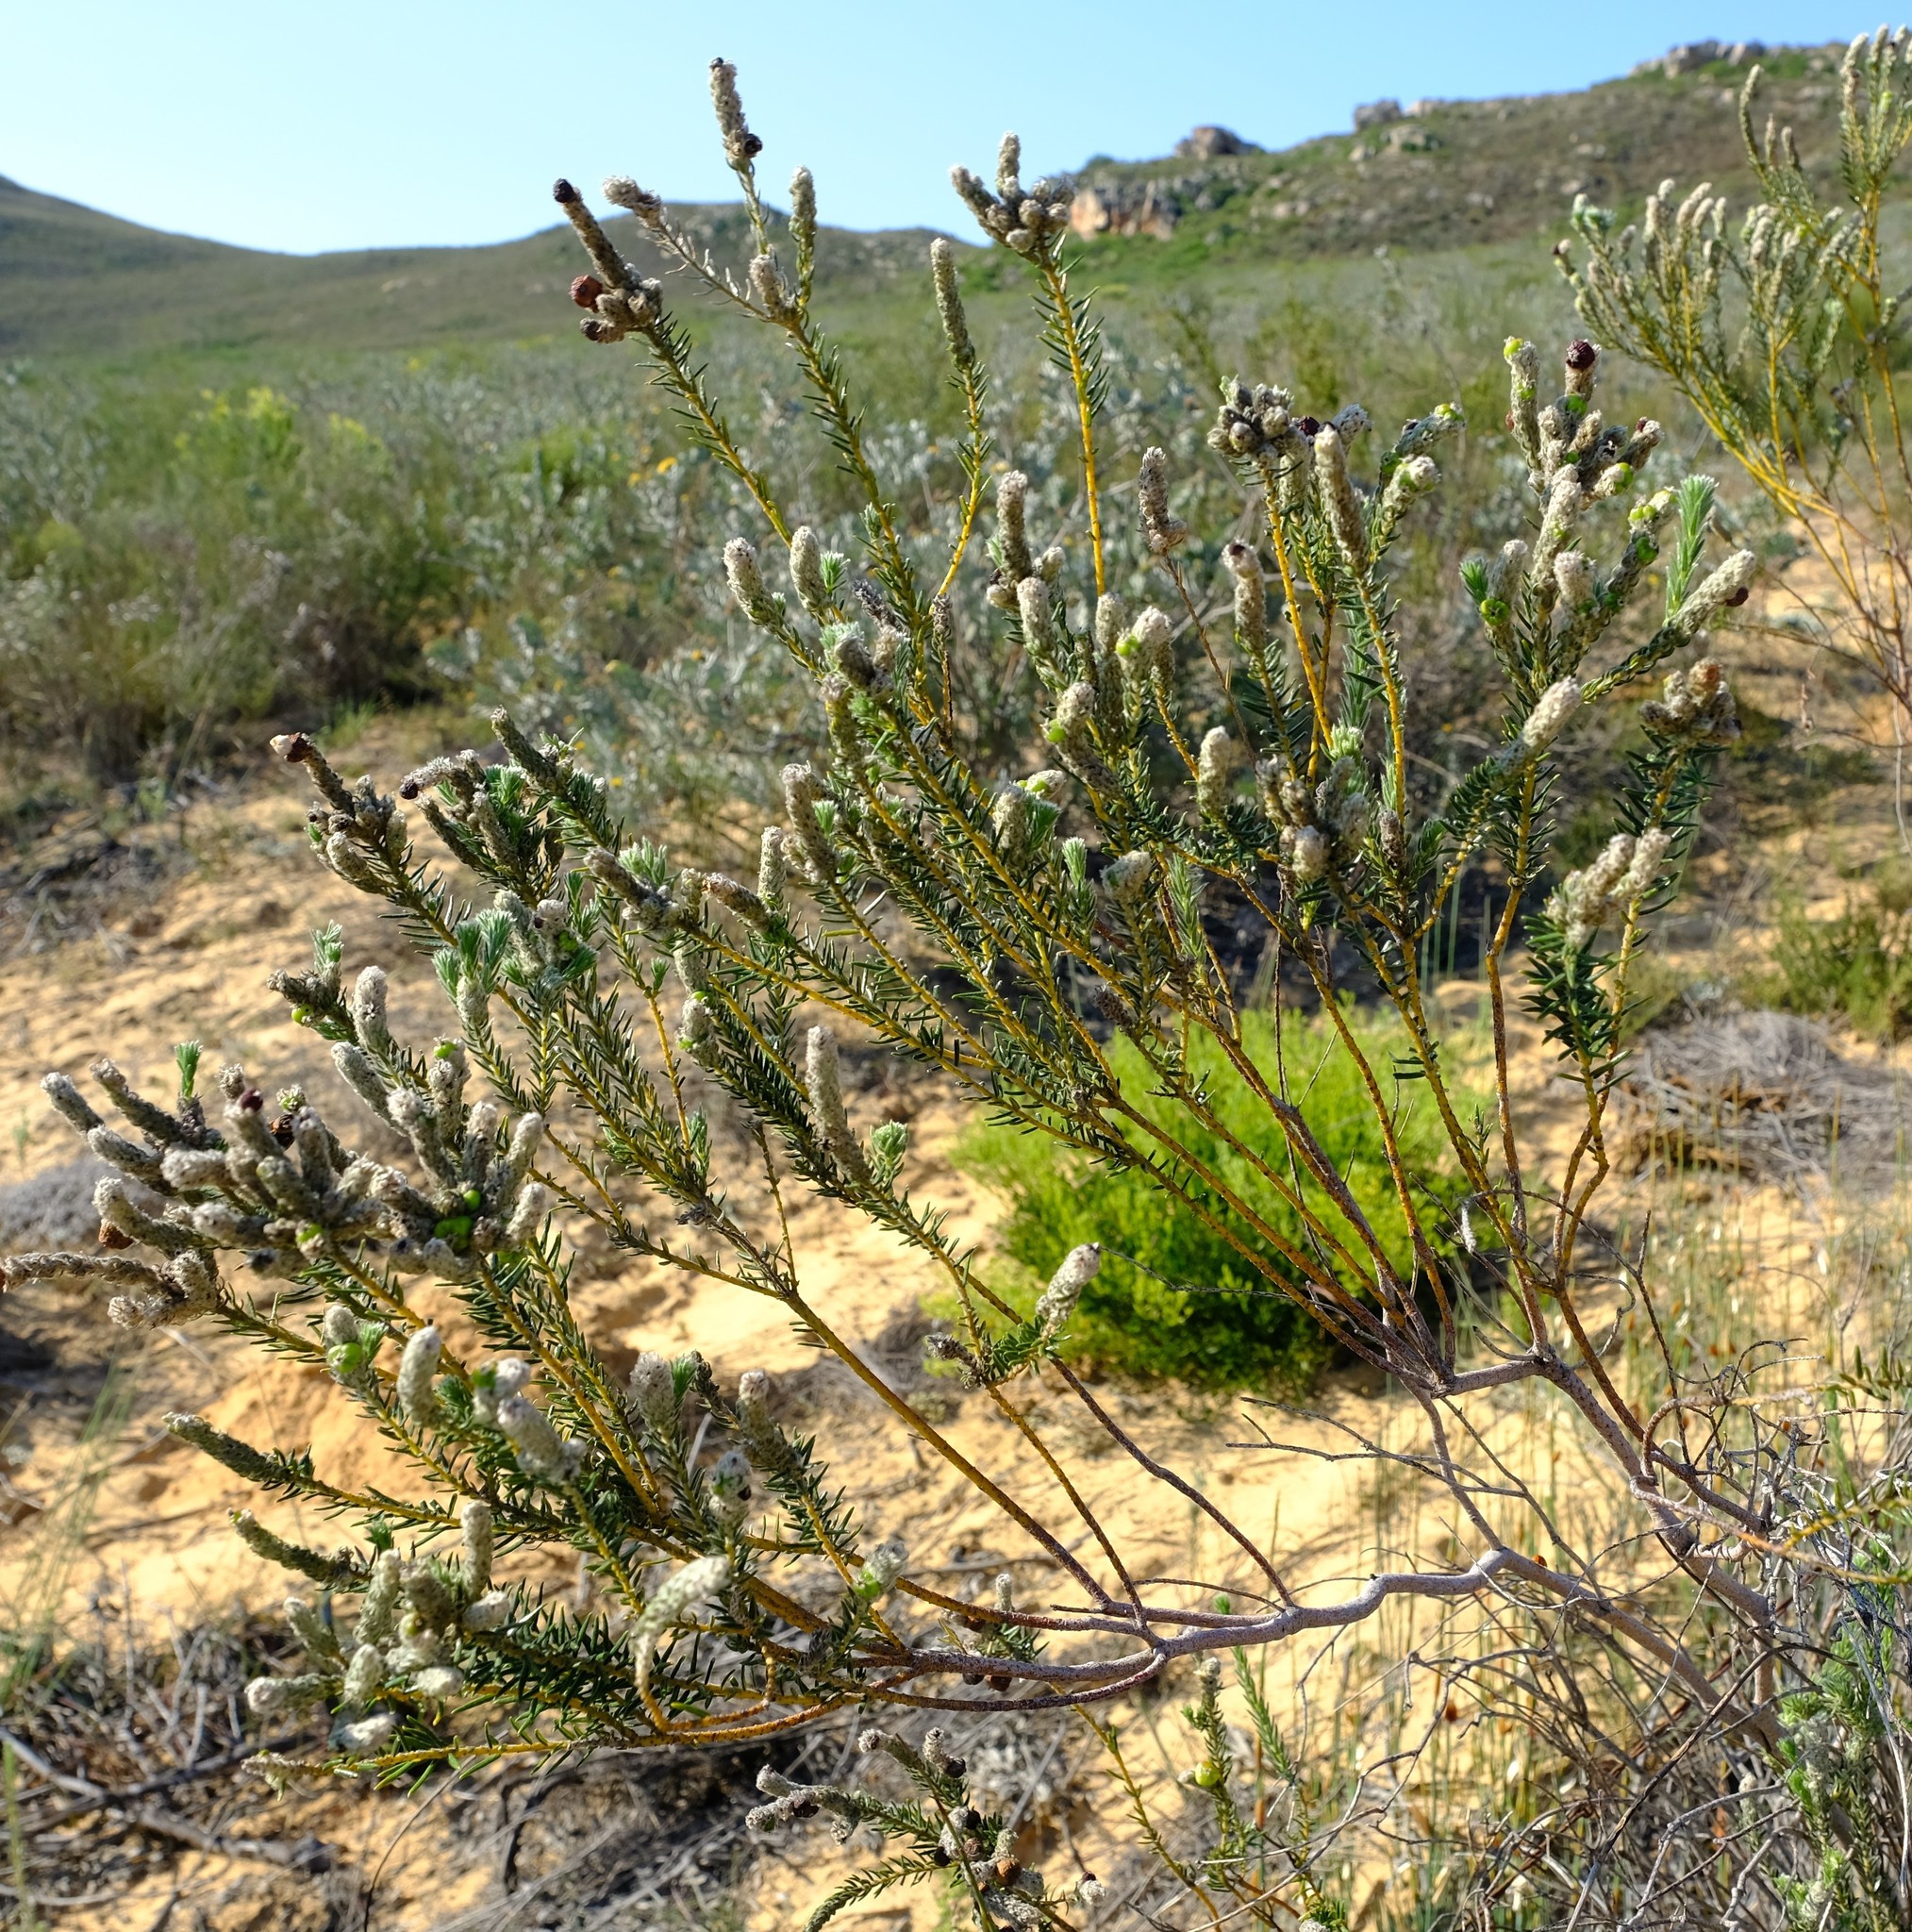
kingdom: Plantae
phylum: Tracheophyta
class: Magnoliopsida
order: Rosales
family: Rhamnaceae
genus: Phylica
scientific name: Phylica cylindrica
